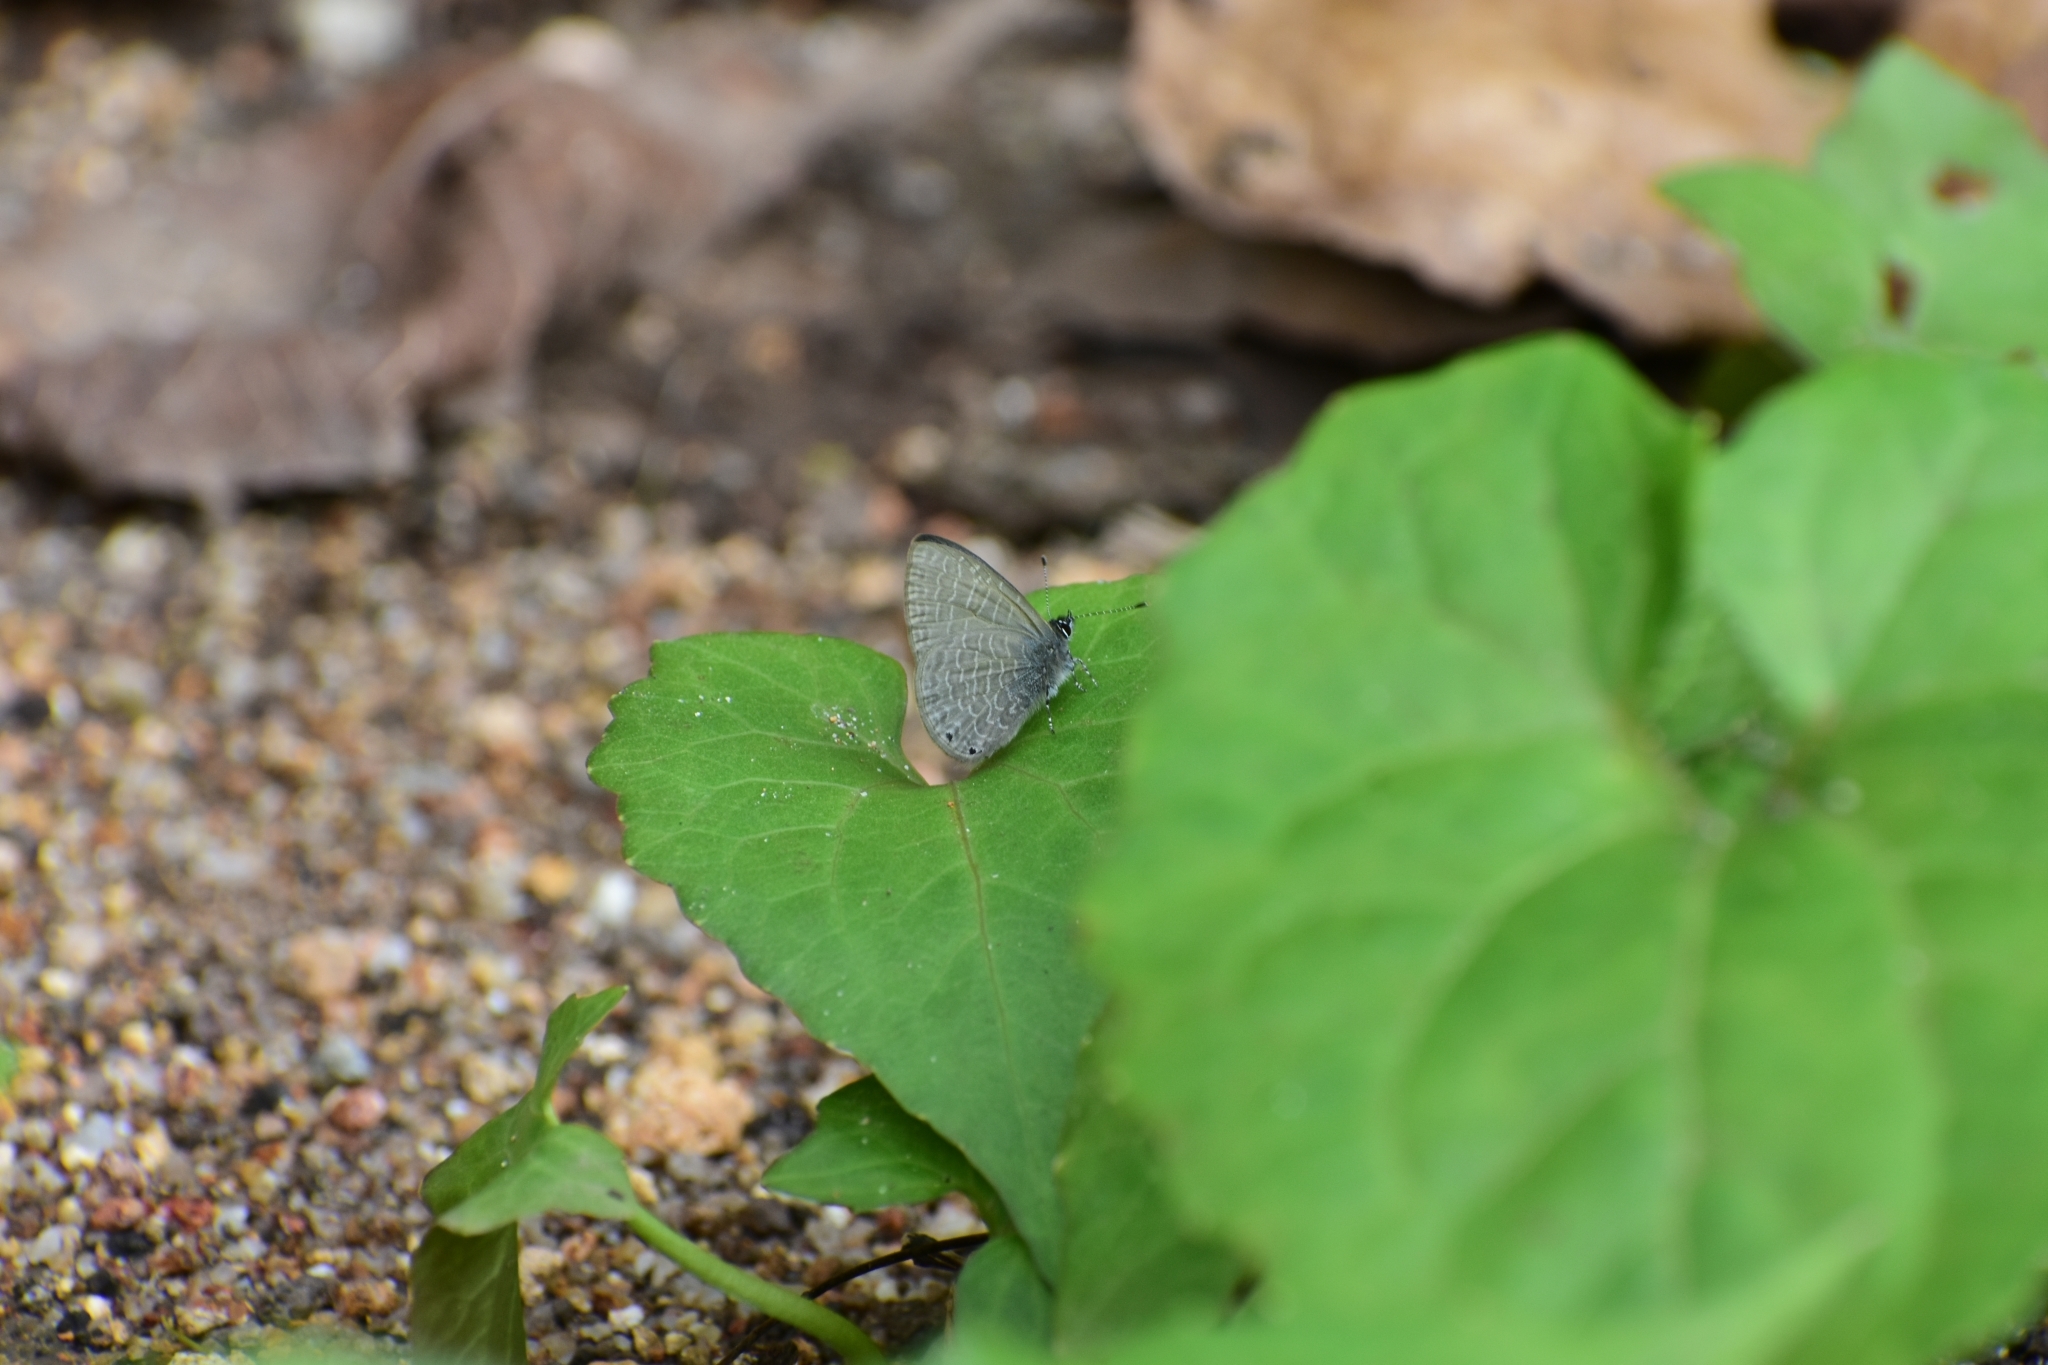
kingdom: Animalia
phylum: Arthropoda
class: Insecta
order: Lepidoptera
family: Lycaenidae
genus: Petrelaea
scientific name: Petrelaea dana
